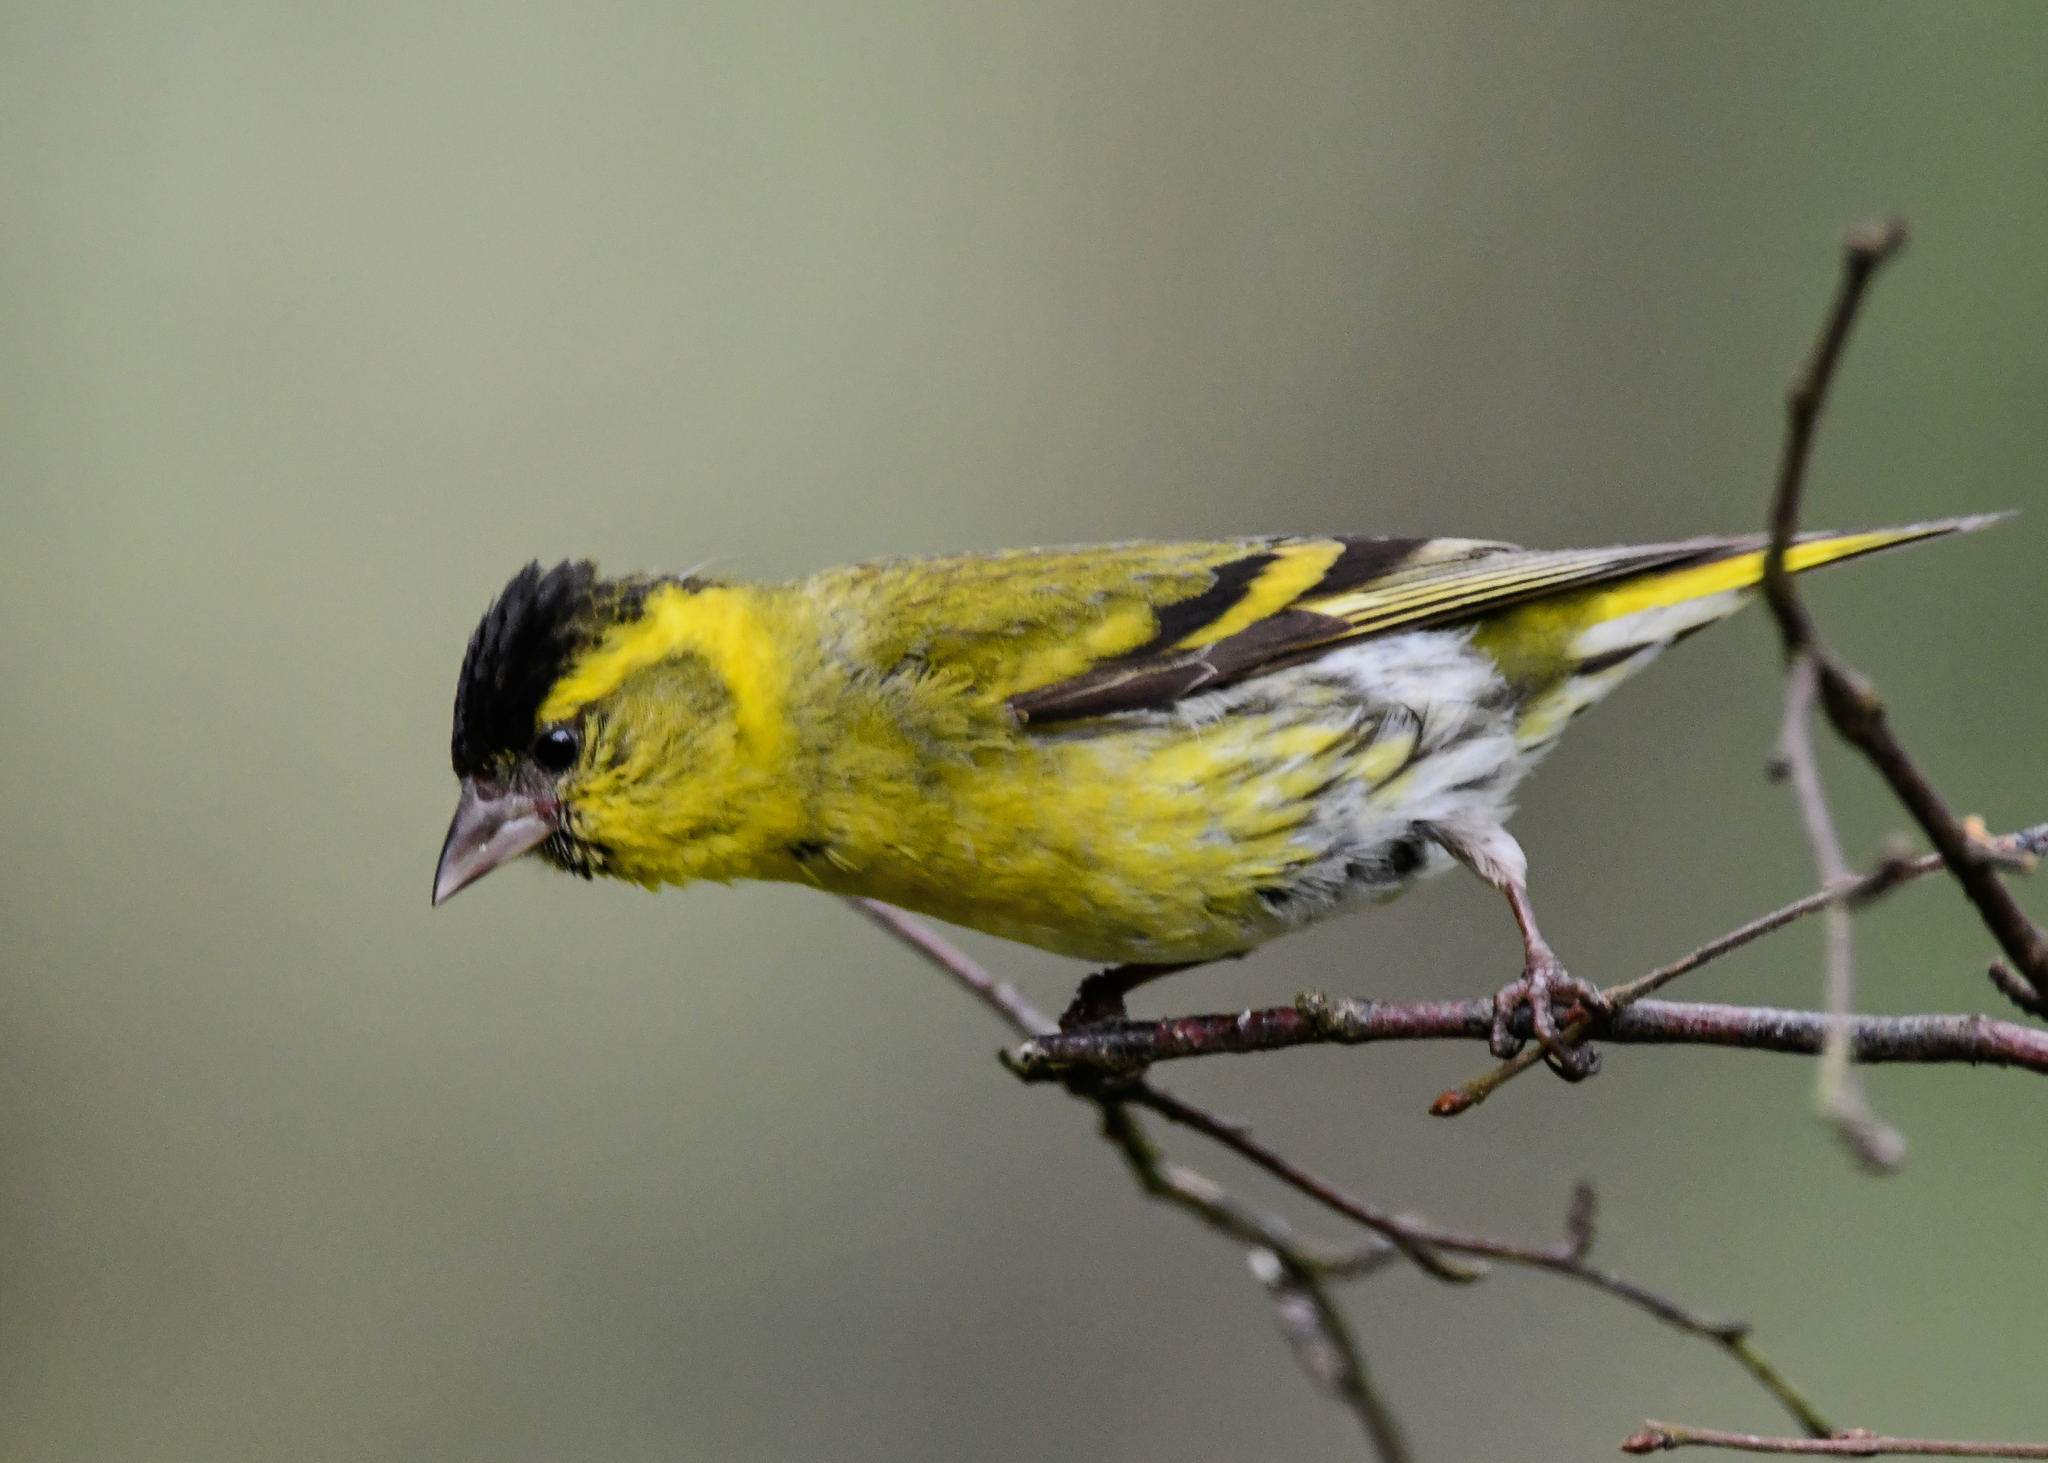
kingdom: Animalia
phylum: Chordata
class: Aves
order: Passeriformes
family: Fringillidae
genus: Spinus
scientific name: Spinus spinus
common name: Eurasian siskin
